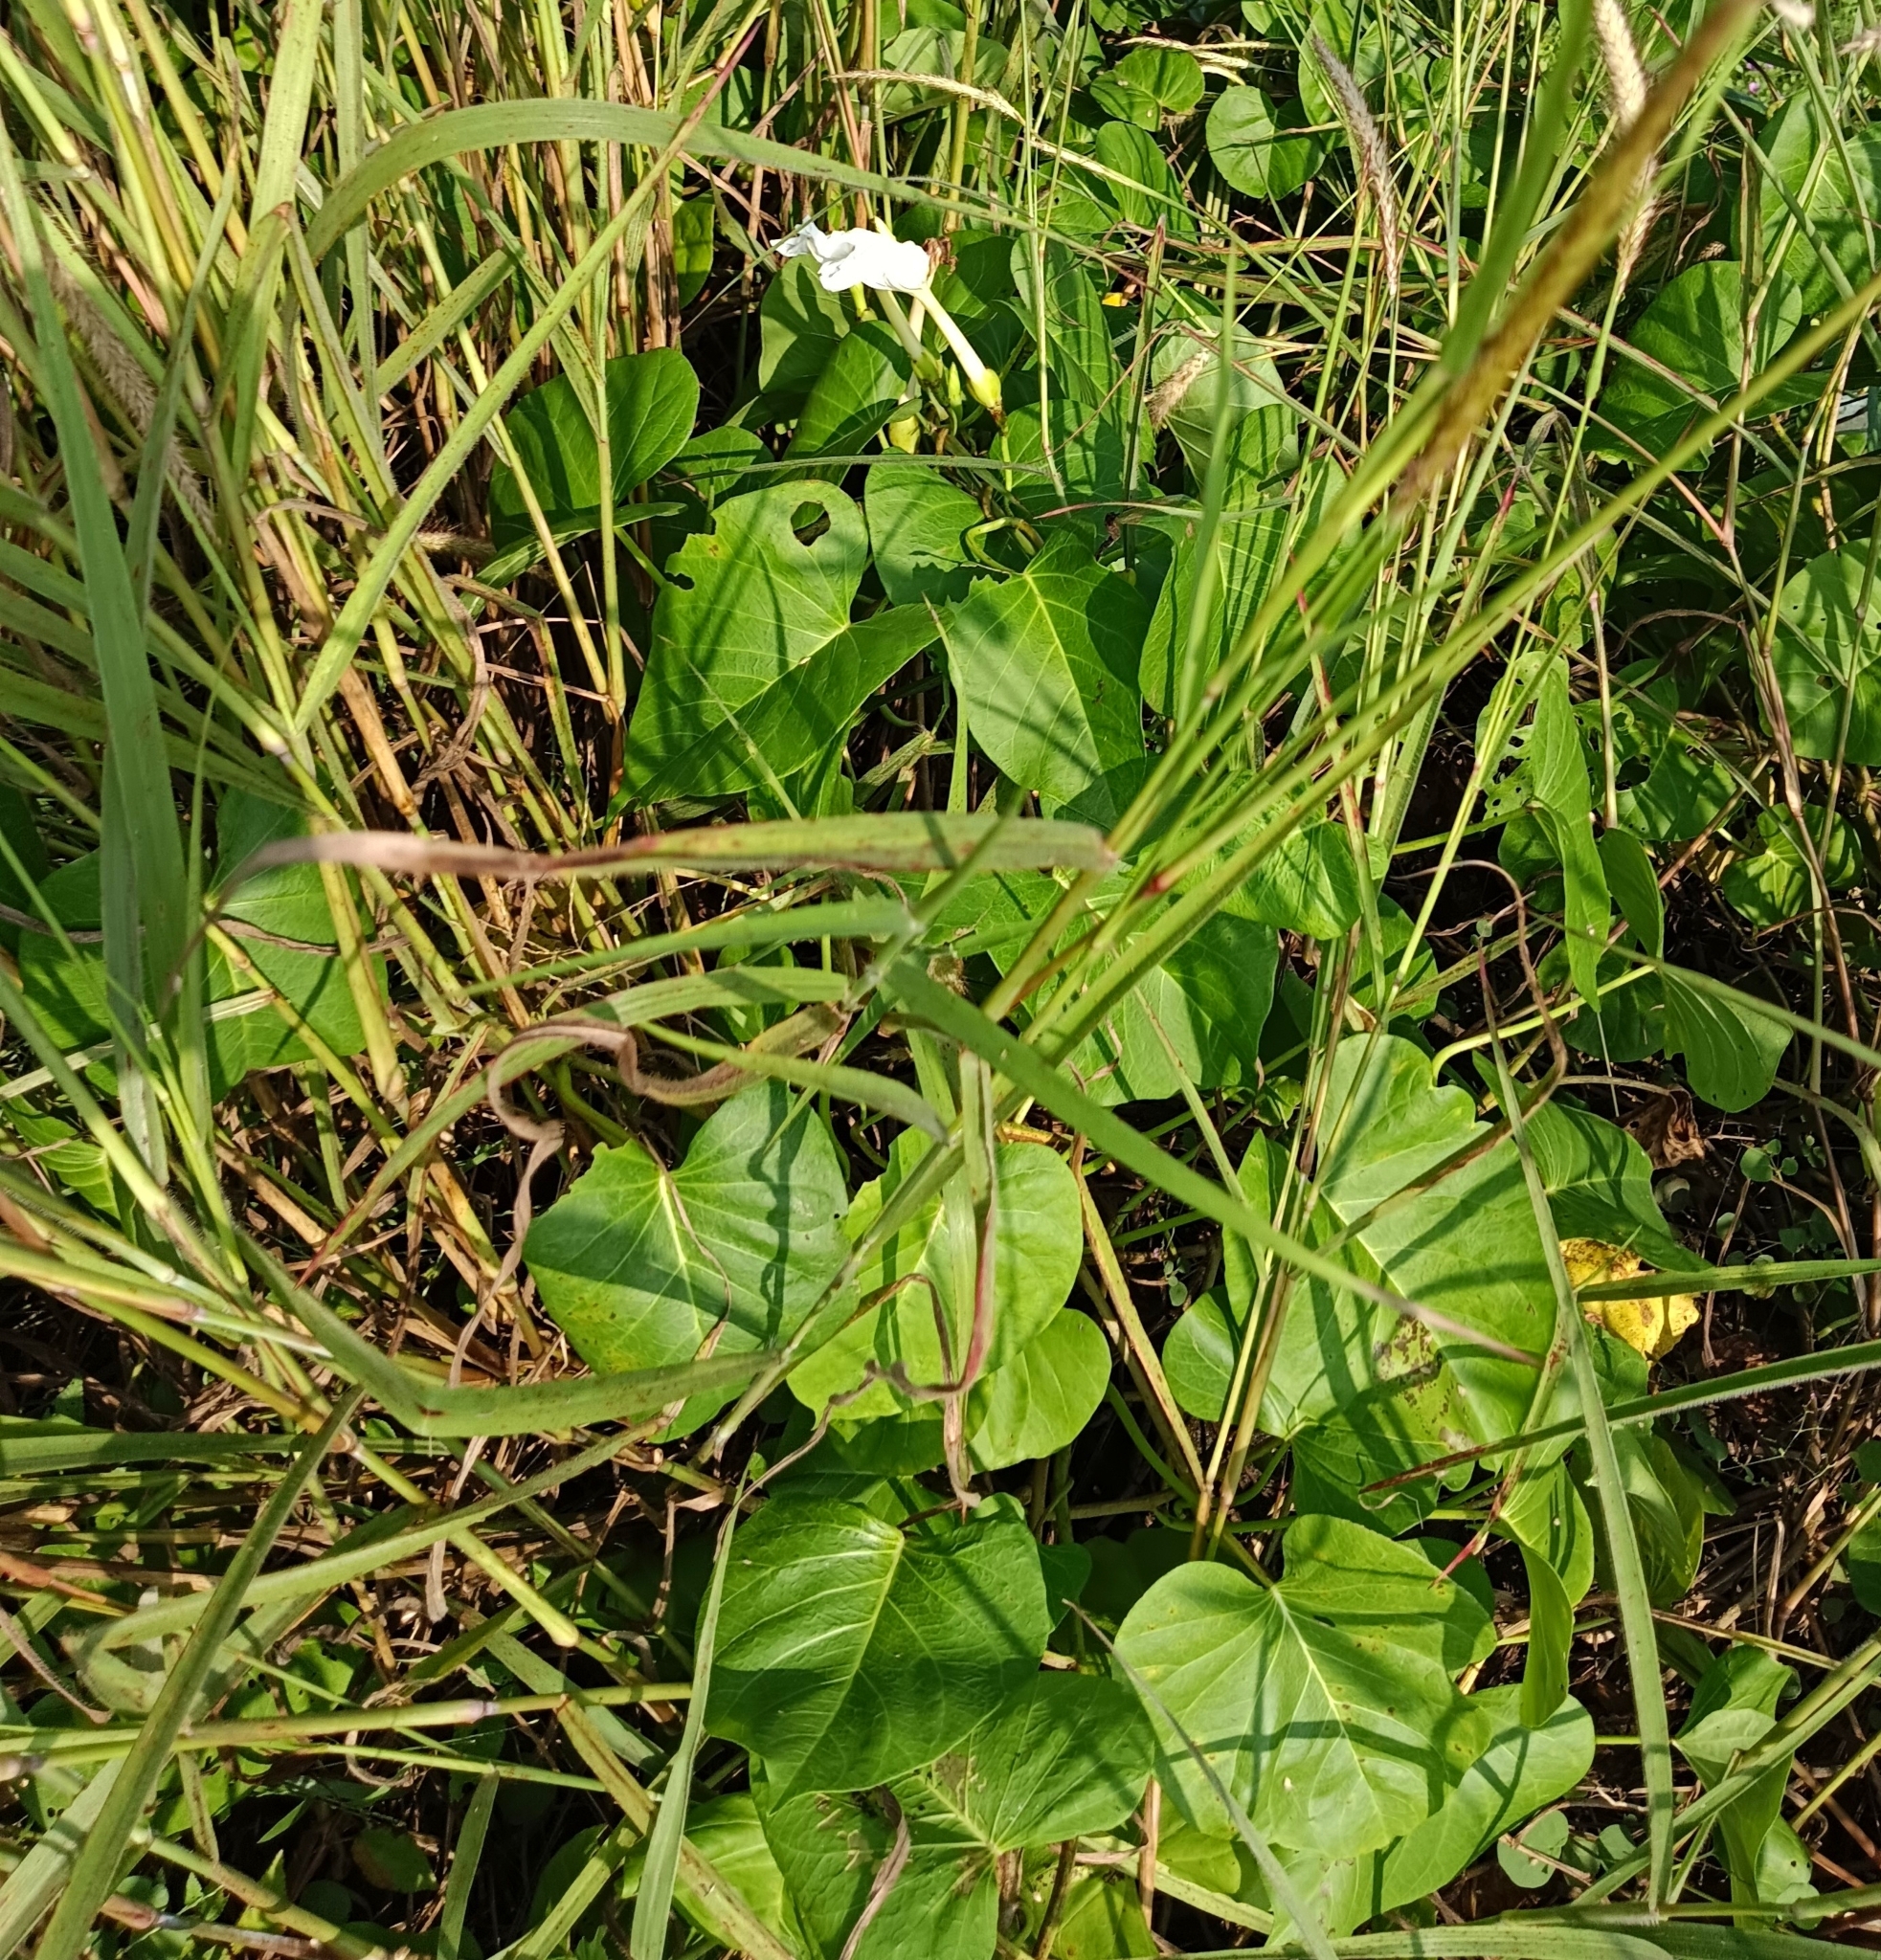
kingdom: Plantae
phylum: Tracheophyta
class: Magnoliopsida
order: Solanales
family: Convolvulaceae
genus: Ipomoea
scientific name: Ipomoea violacea
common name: Beach moonflower
